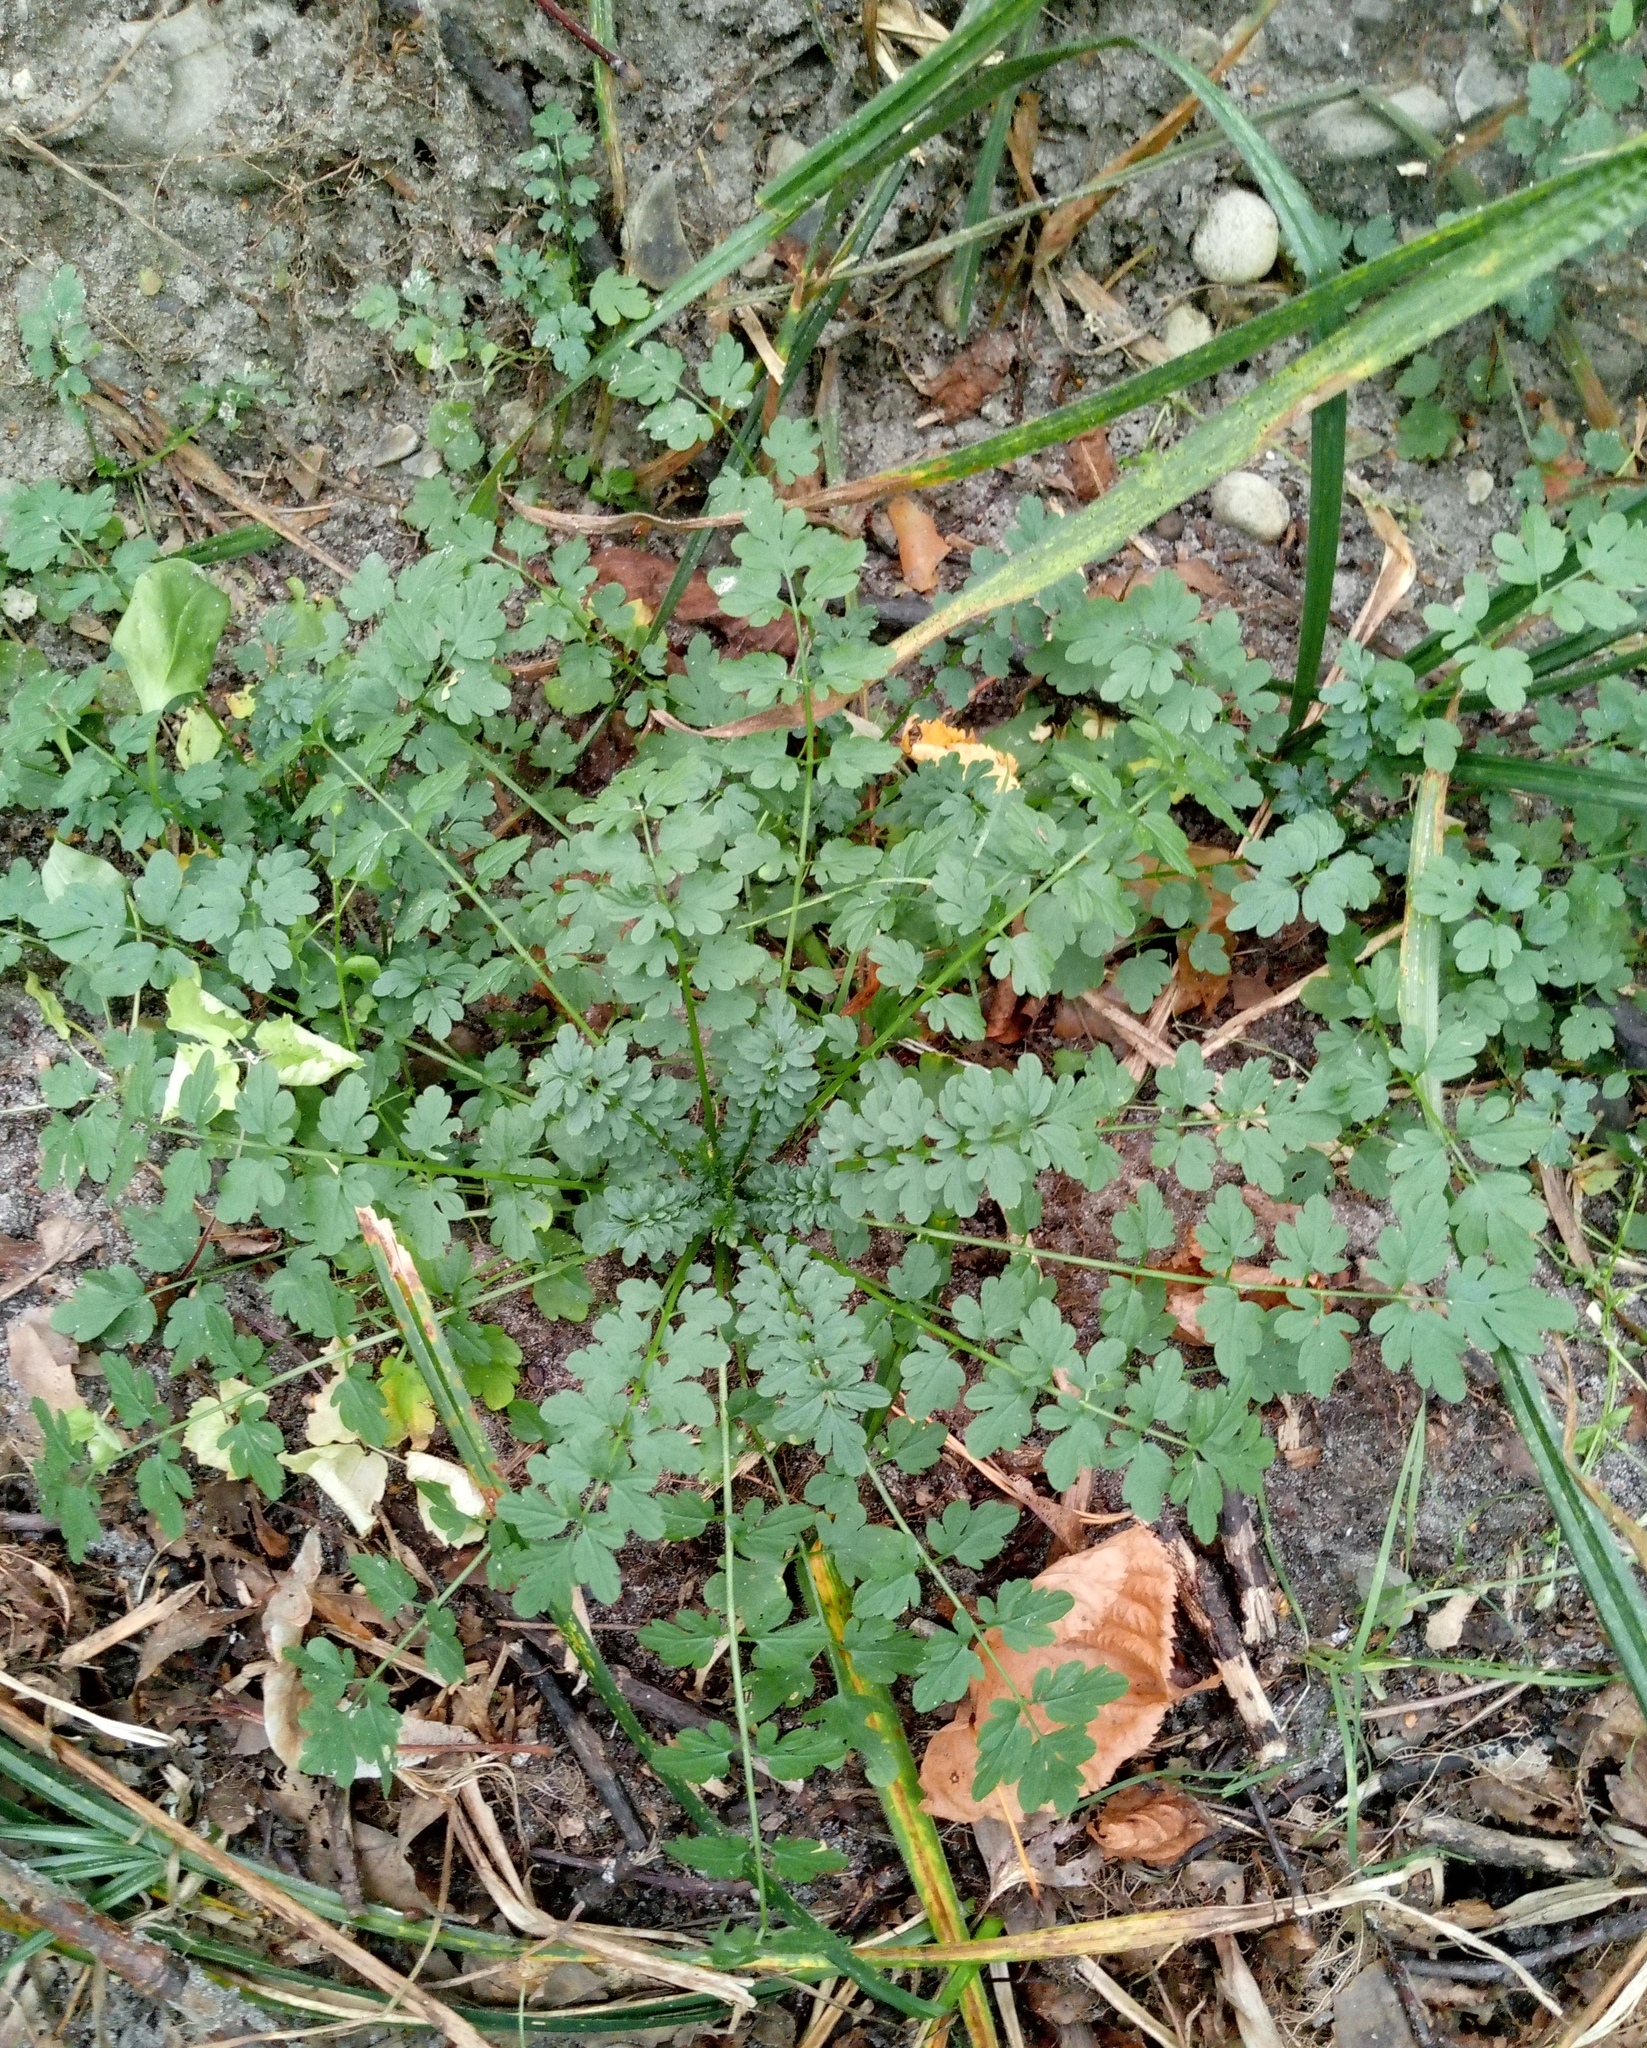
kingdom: Plantae
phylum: Tracheophyta
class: Magnoliopsida
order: Brassicales
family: Brassicaceae
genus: Cardamine
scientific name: Cardamine impatiens
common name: Narrow-leaved bitter-cress
